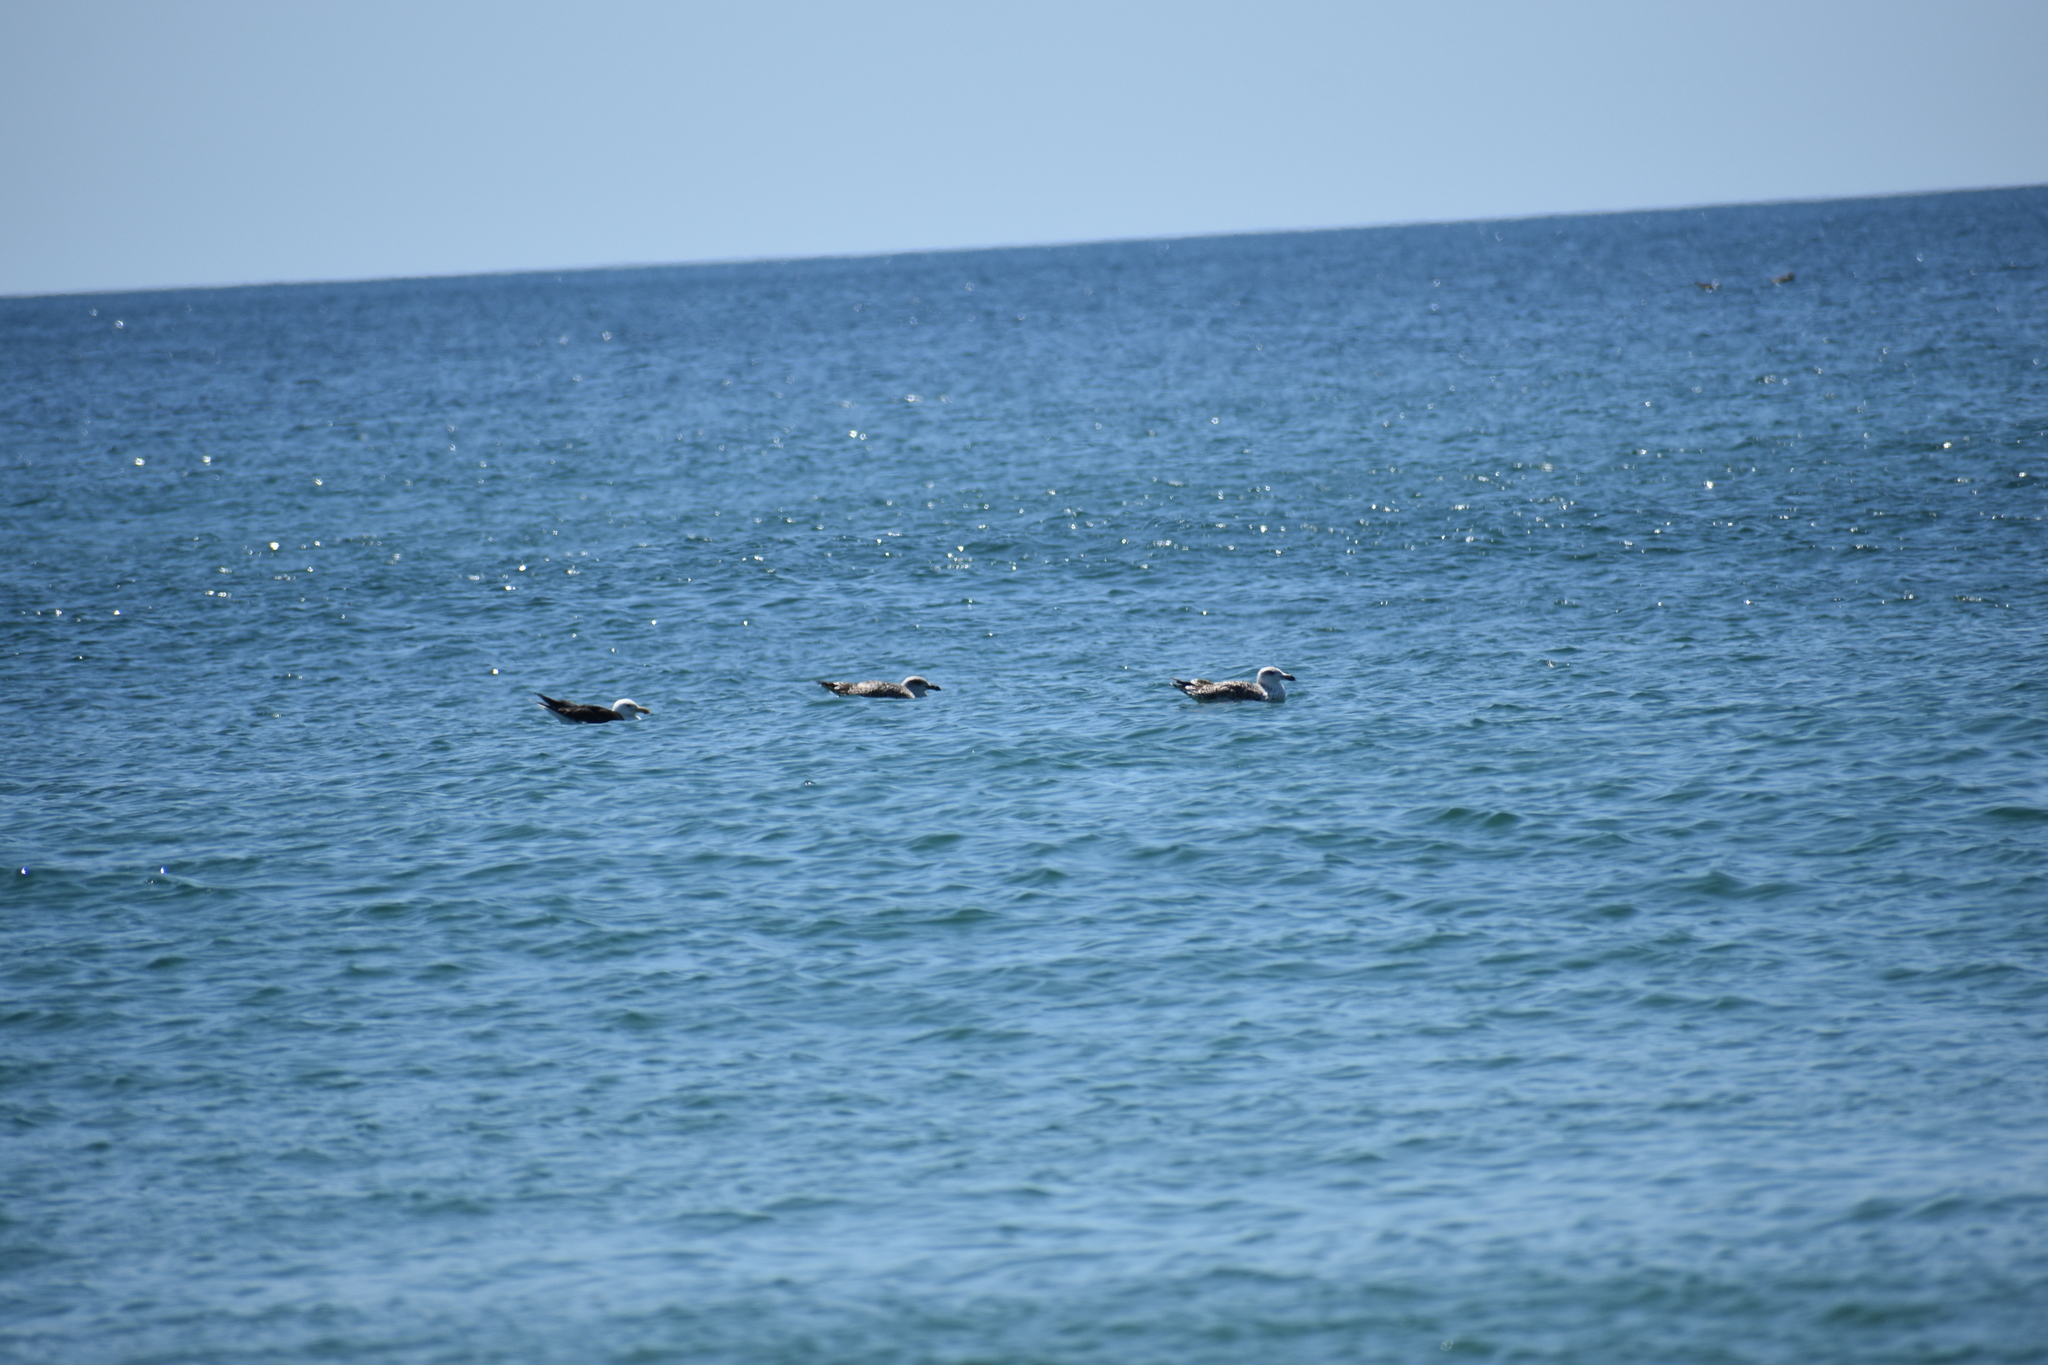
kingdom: Animalia
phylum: Chordata
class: Aves
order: Charadriiformes
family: Laridae
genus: Larus
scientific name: Larus marinus
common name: Great black-backed gull
